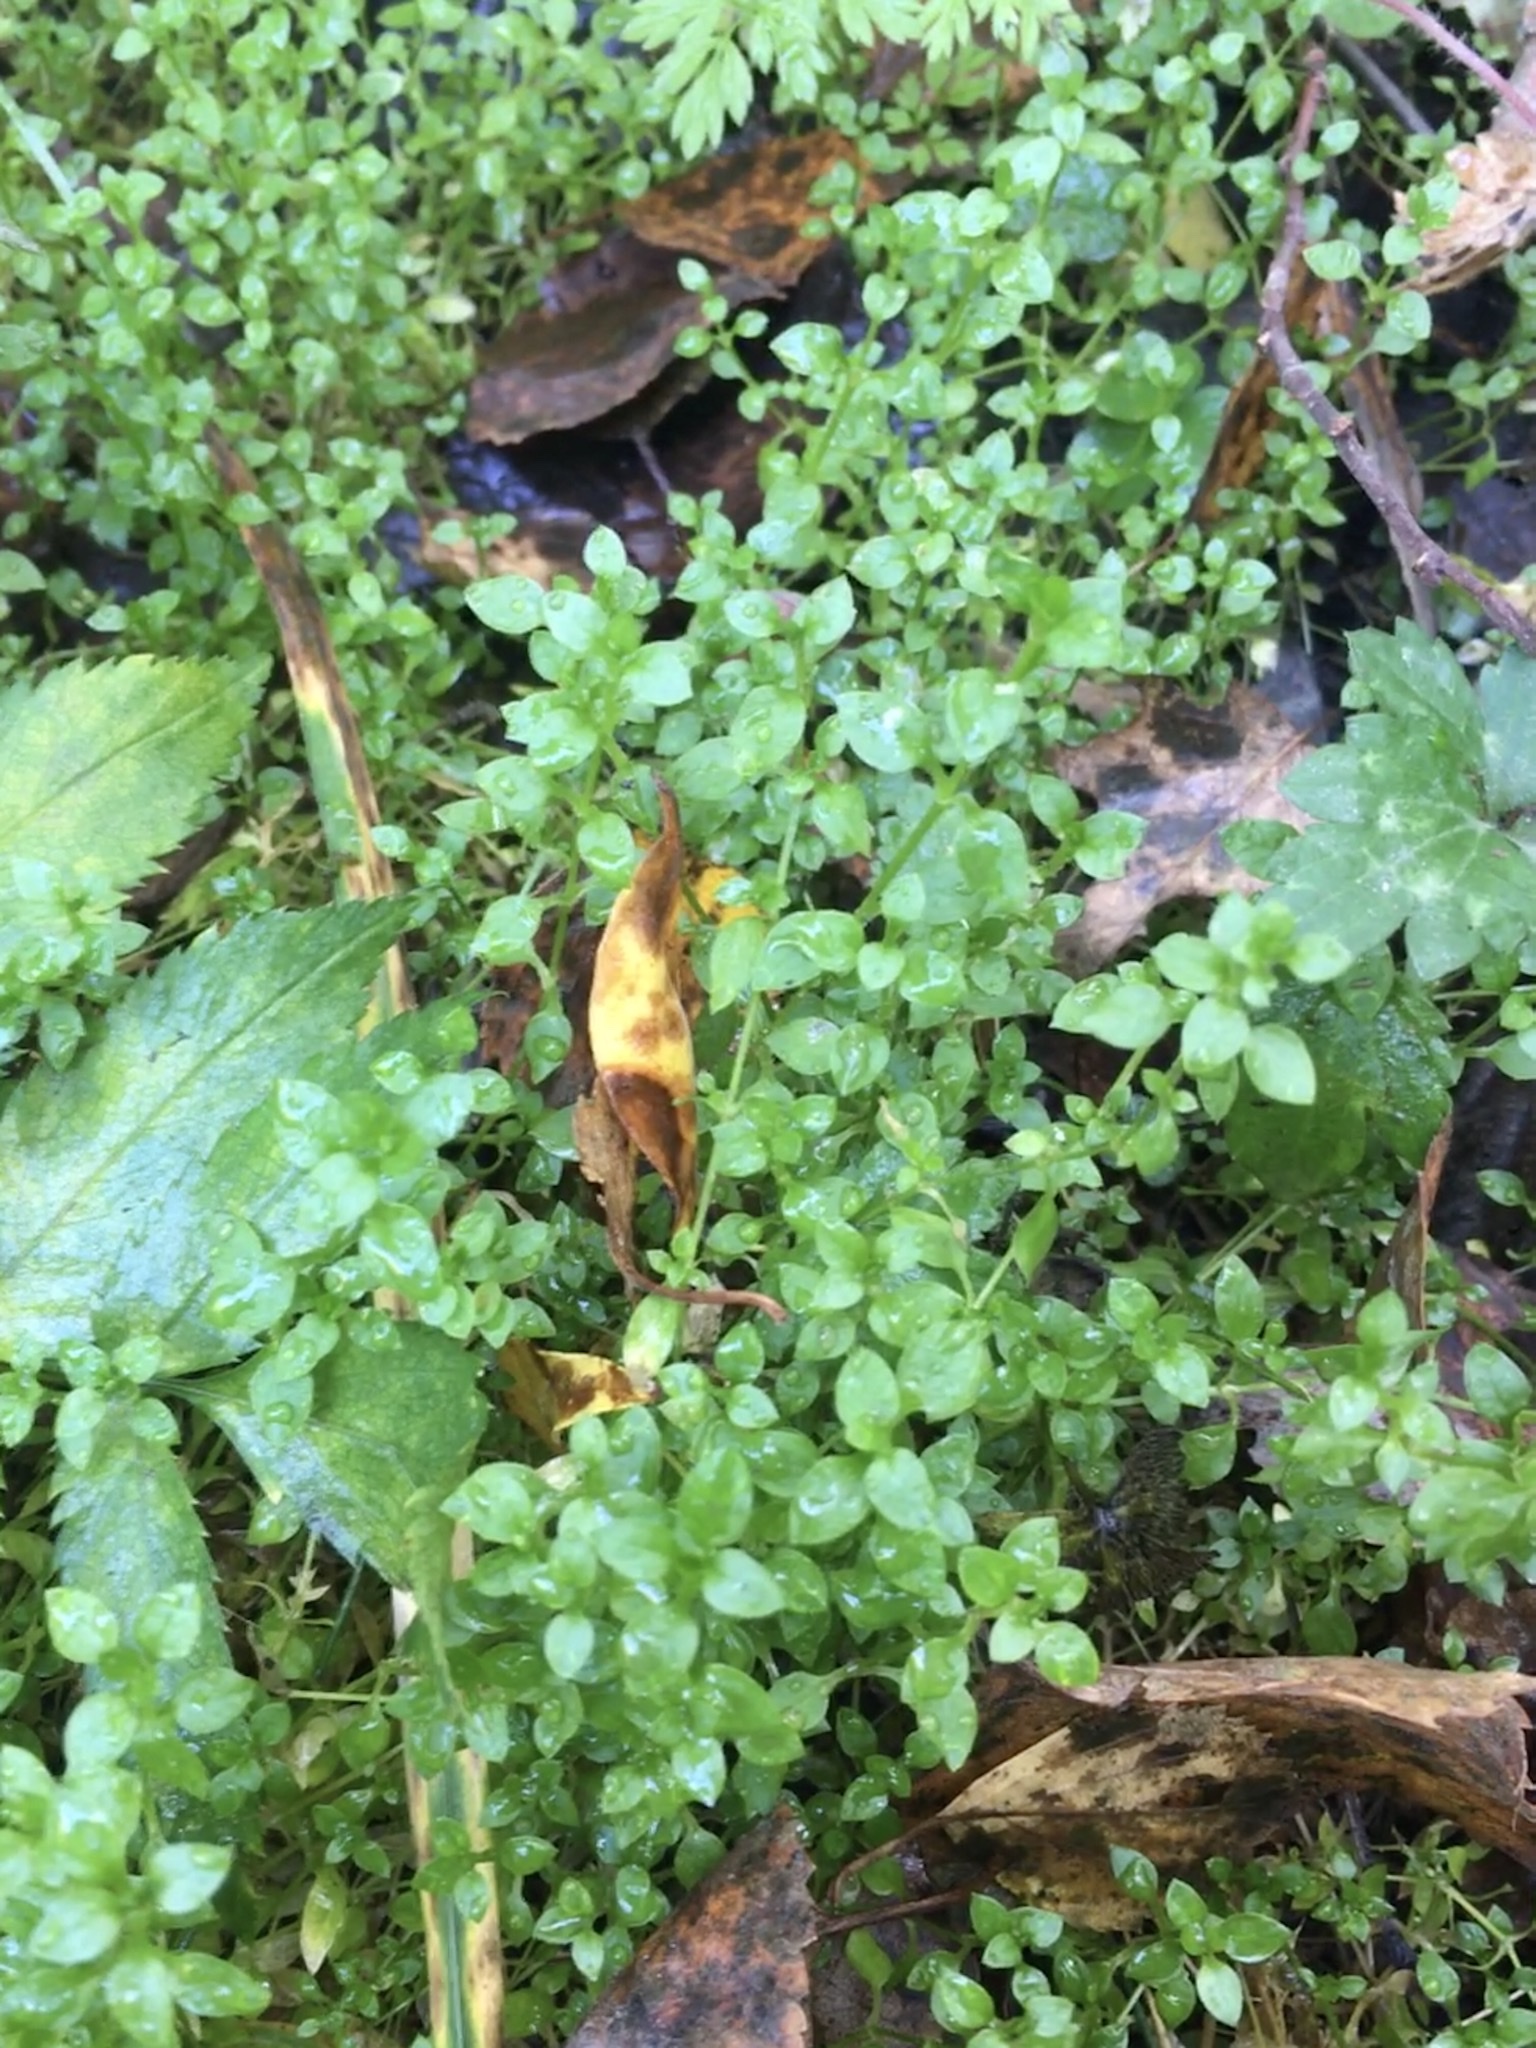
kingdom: Plantae
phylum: Tracheophyta
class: Magnoliopsida
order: Caryophyllales
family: Caryophyllaceae
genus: Stellaria
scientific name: Stellaria media
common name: Common chickweed
